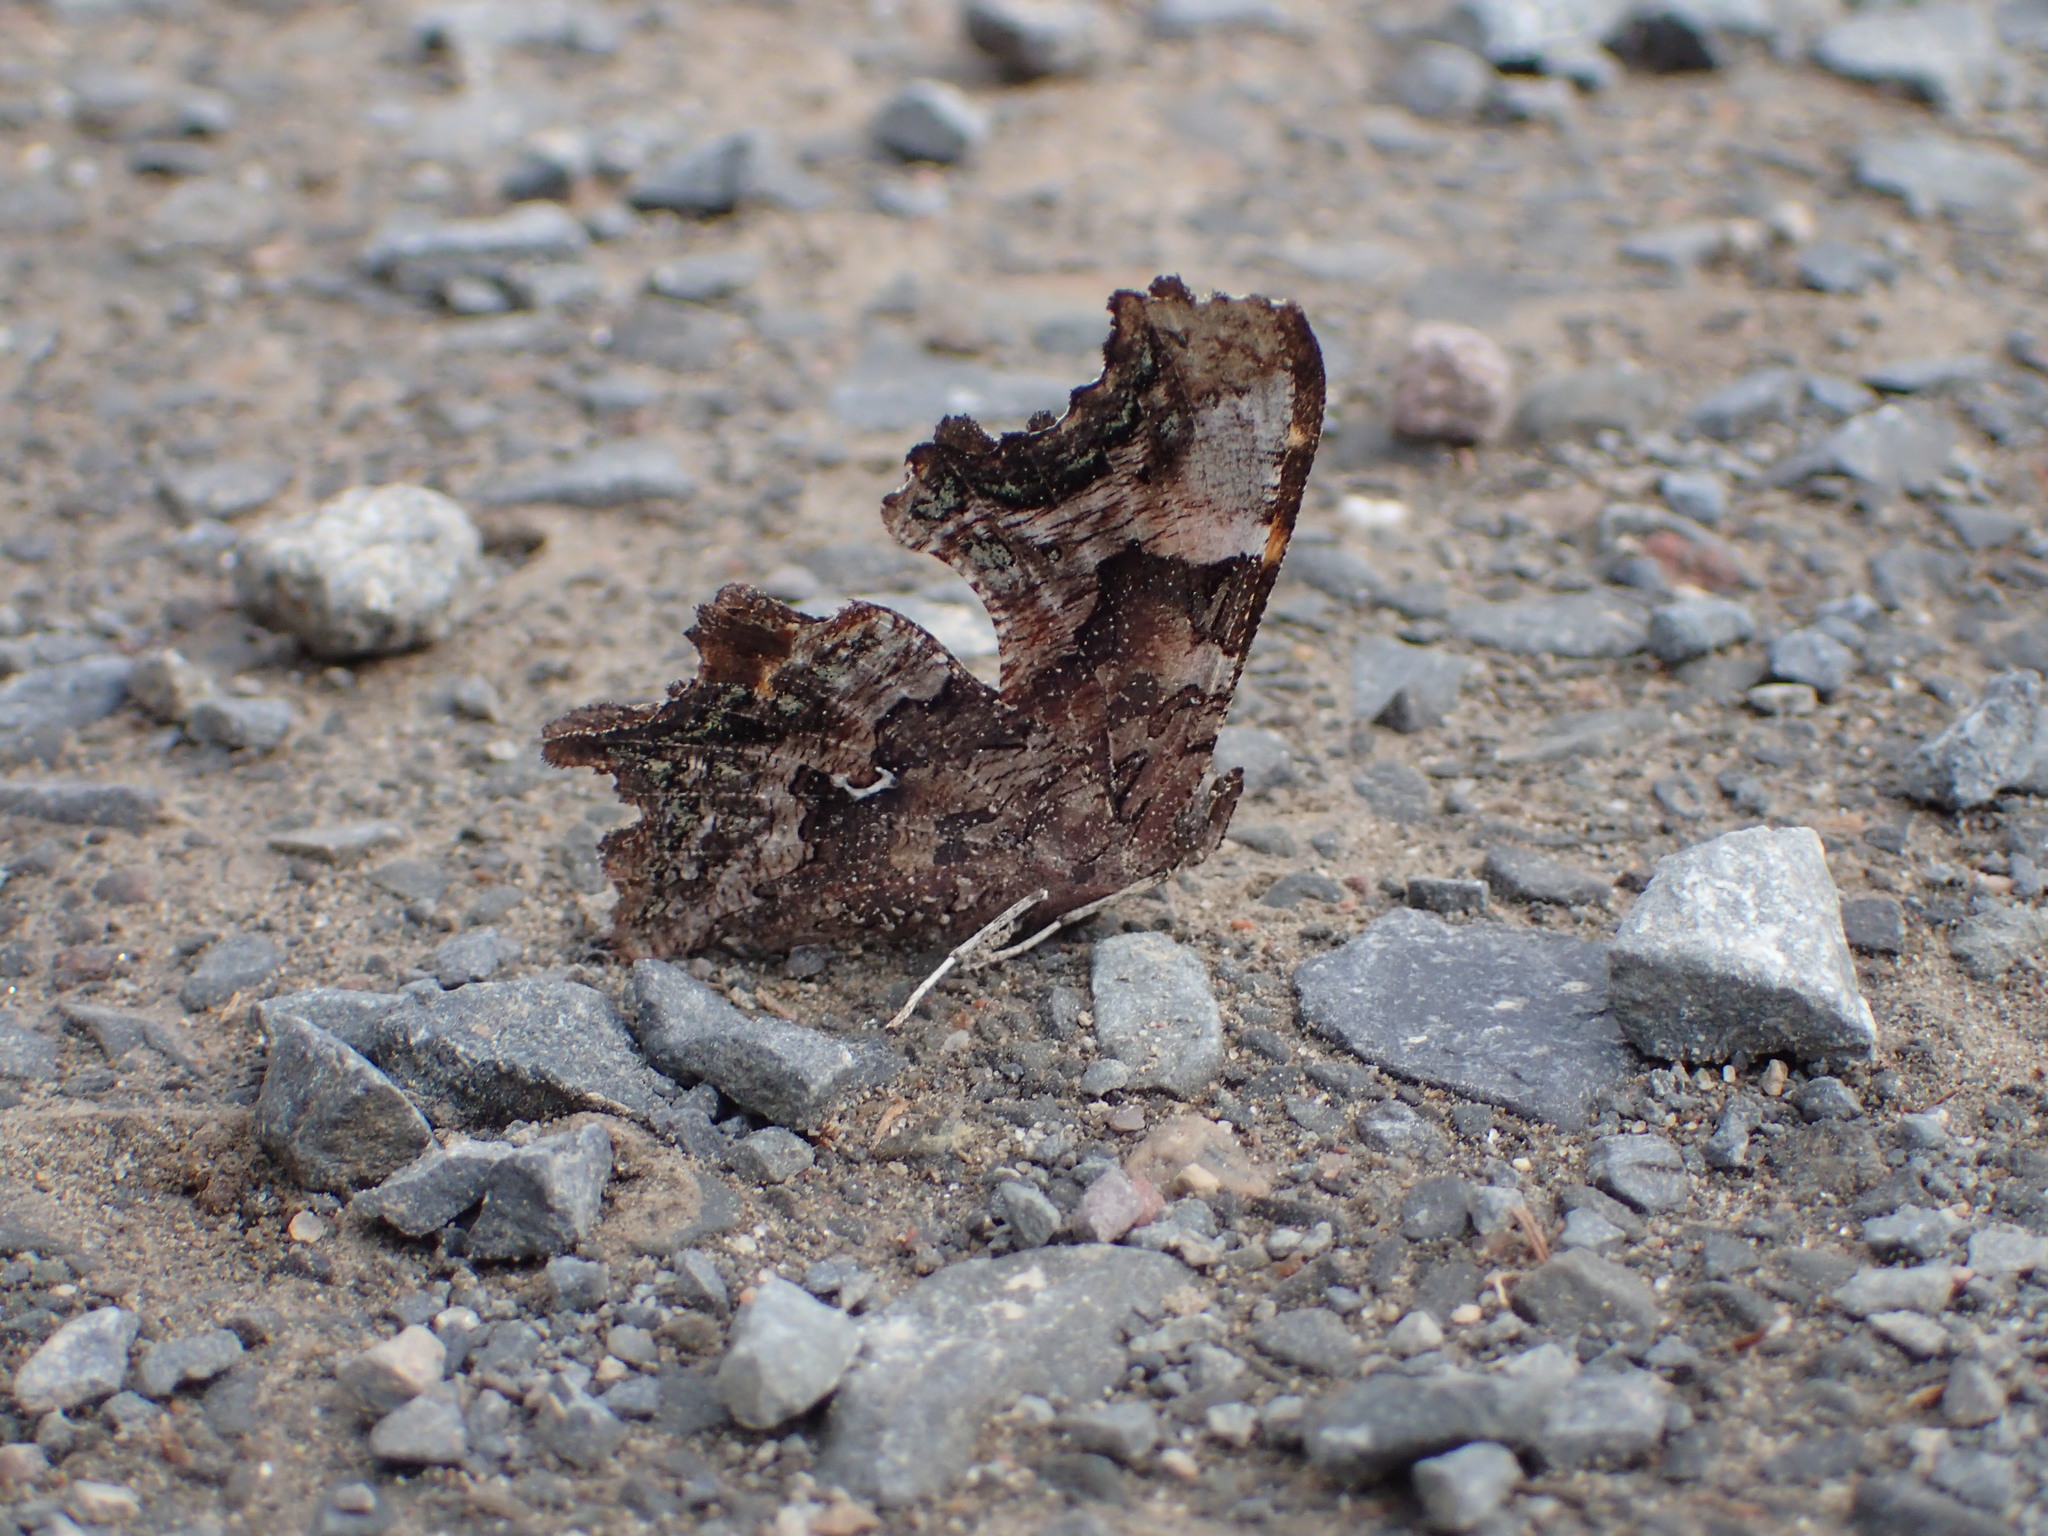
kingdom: Animalia
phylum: Arthropoda
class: Insecta
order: Lepidoptera
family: Nymphalidae
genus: Polygonia
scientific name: Polygonia faunus
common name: Green comma
